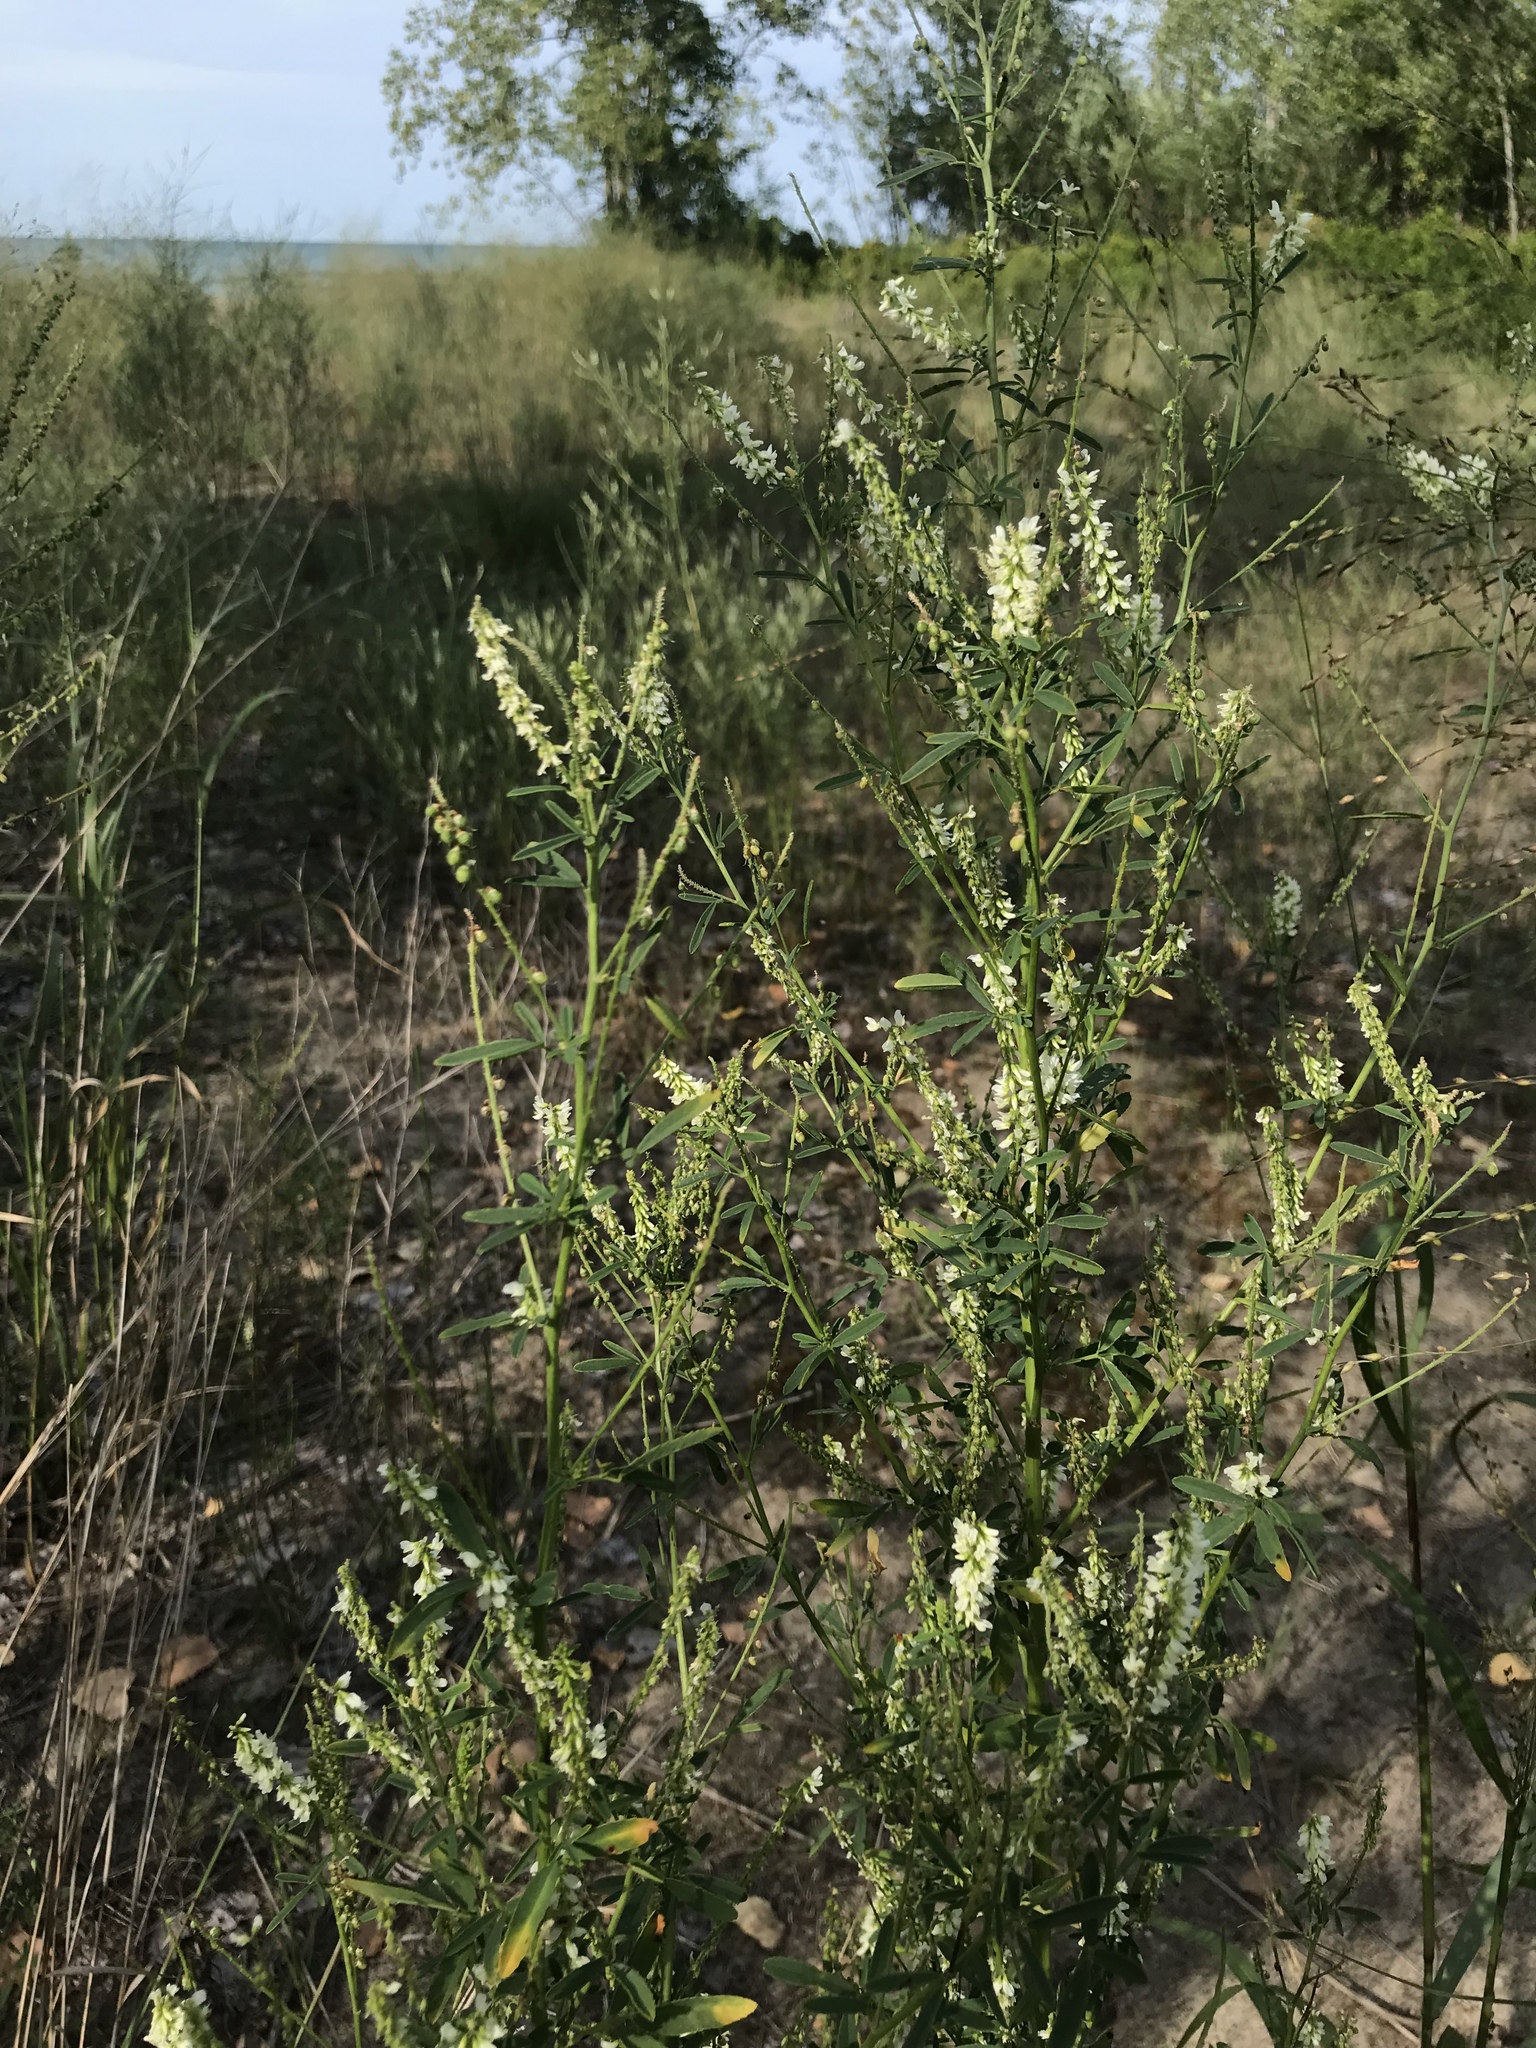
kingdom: Plantae
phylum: Tracheophyta
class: Magnoliopsida
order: Fabales
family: Fabaceae
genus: Melilotus
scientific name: Melilotus albus
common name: White melilot
